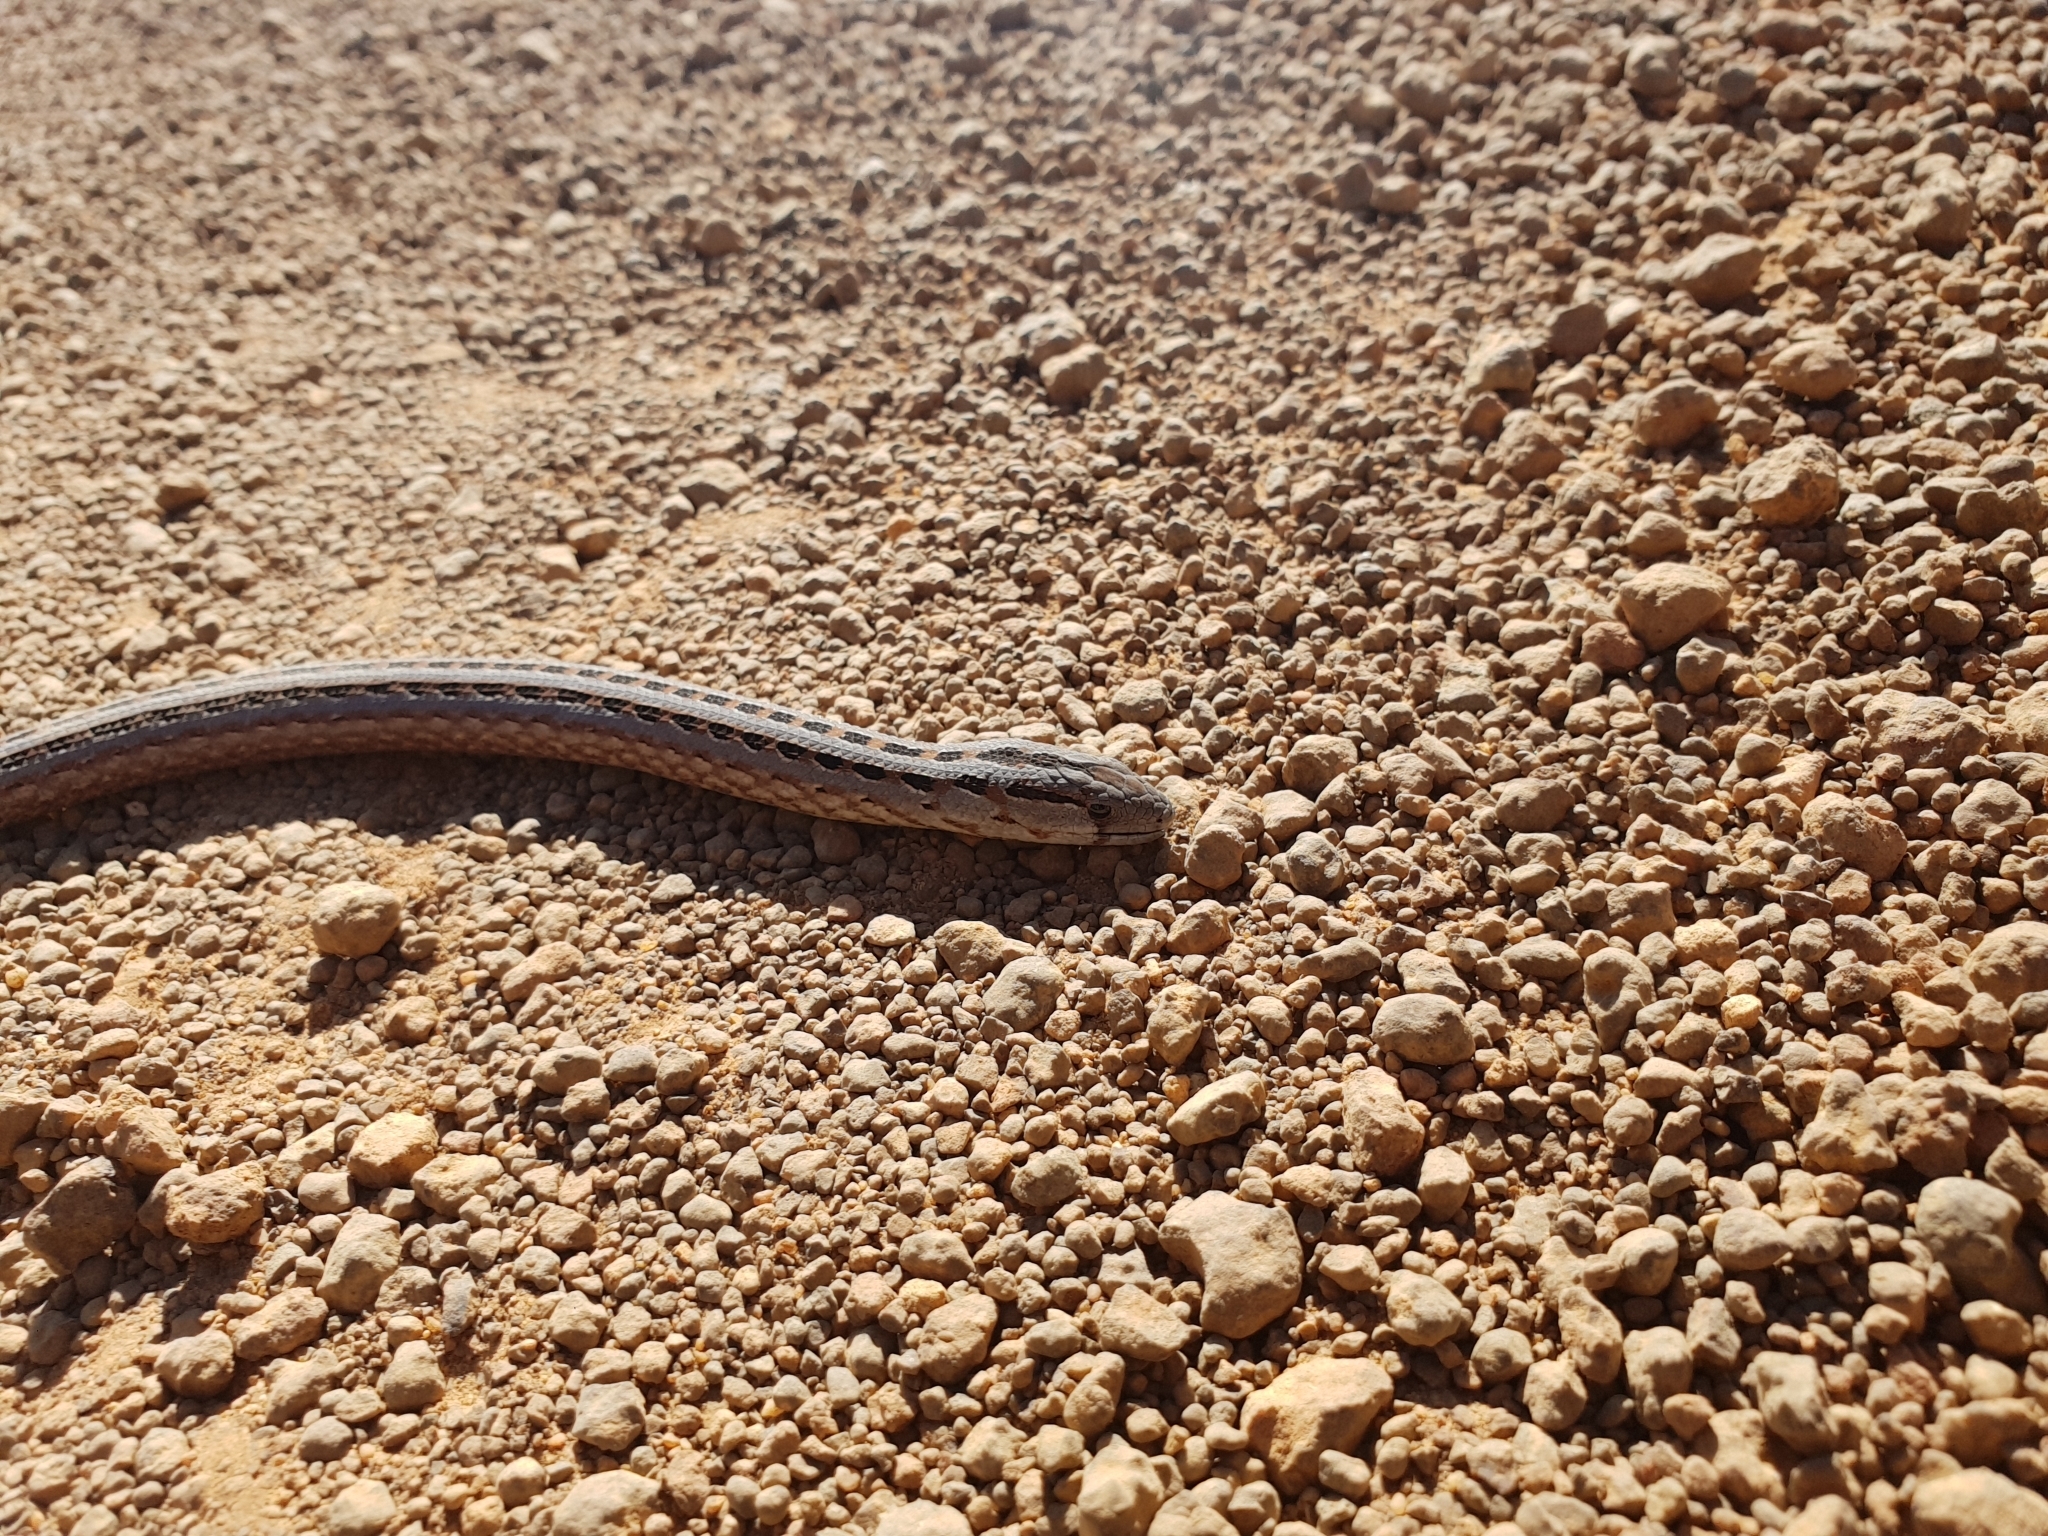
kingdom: Animalia
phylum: Chordata
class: Squamata
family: Pygopodidae
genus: Pygopus
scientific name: Pygopus lepidopodus
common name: Southern scaly-foot
